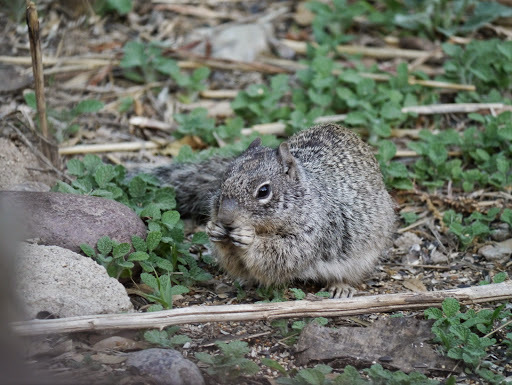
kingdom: Animalia
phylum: Chordata
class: Mammalia
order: Rodentia
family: Sciuridae
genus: Otospermophilus
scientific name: Otospermophilus variegatus
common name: Rock squirrel
